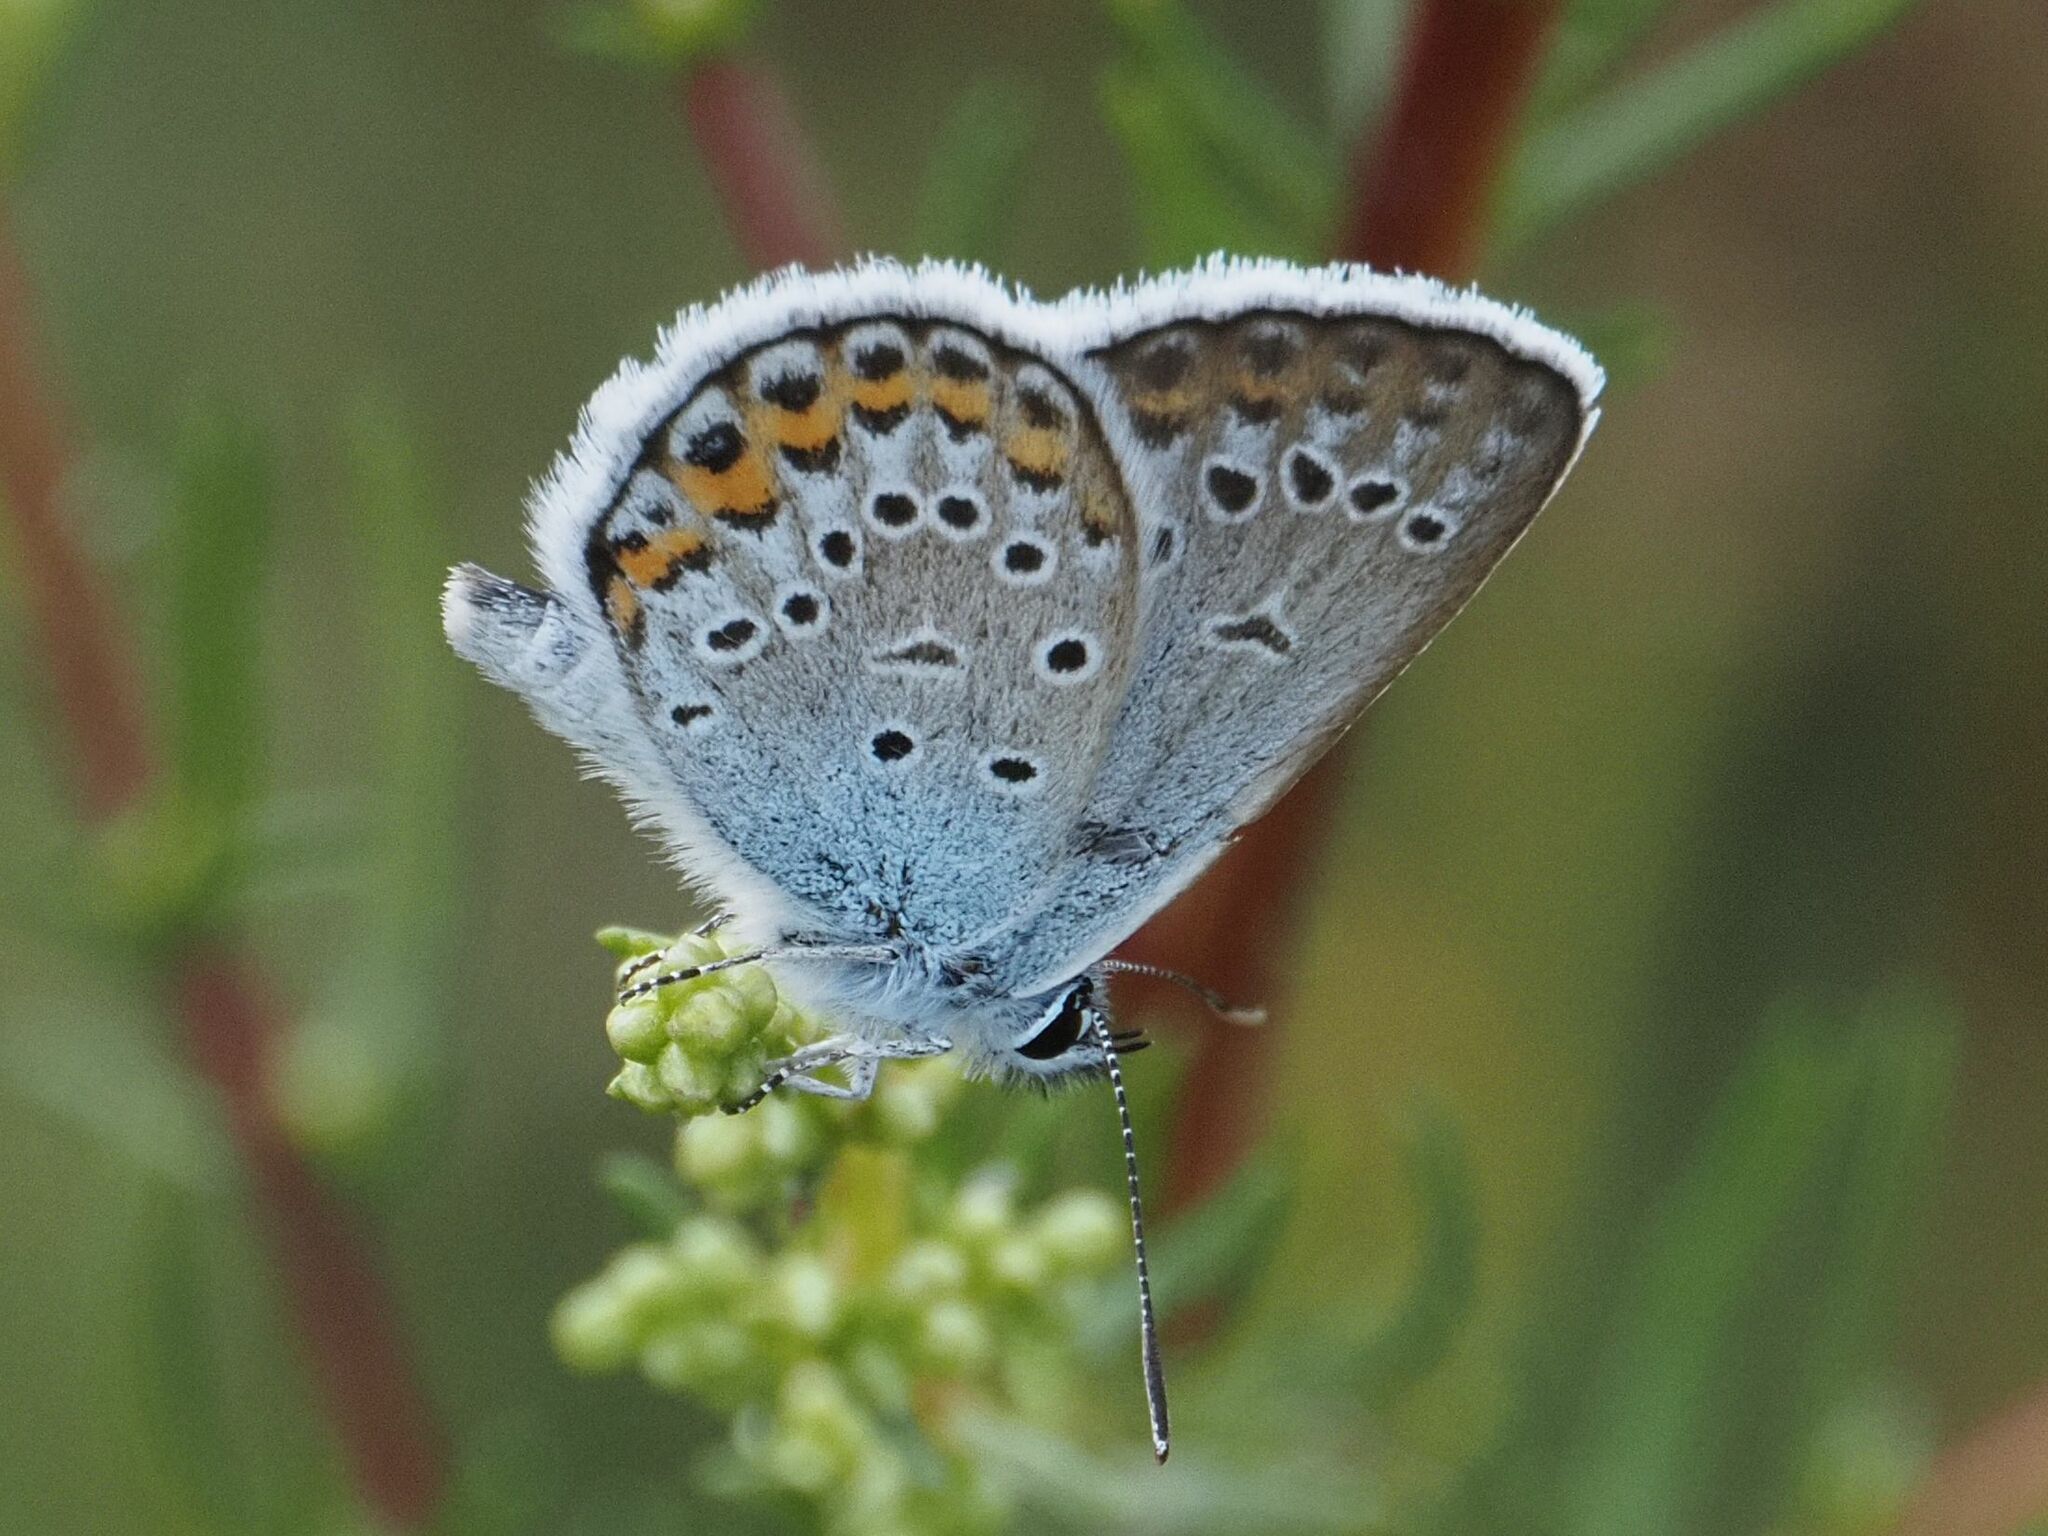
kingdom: Animalia
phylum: Arthropoda
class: Insecta
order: Lepidoptera
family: Lycaenidae
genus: Plebejus
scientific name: Plebejus argus
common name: Silver-studded blue
